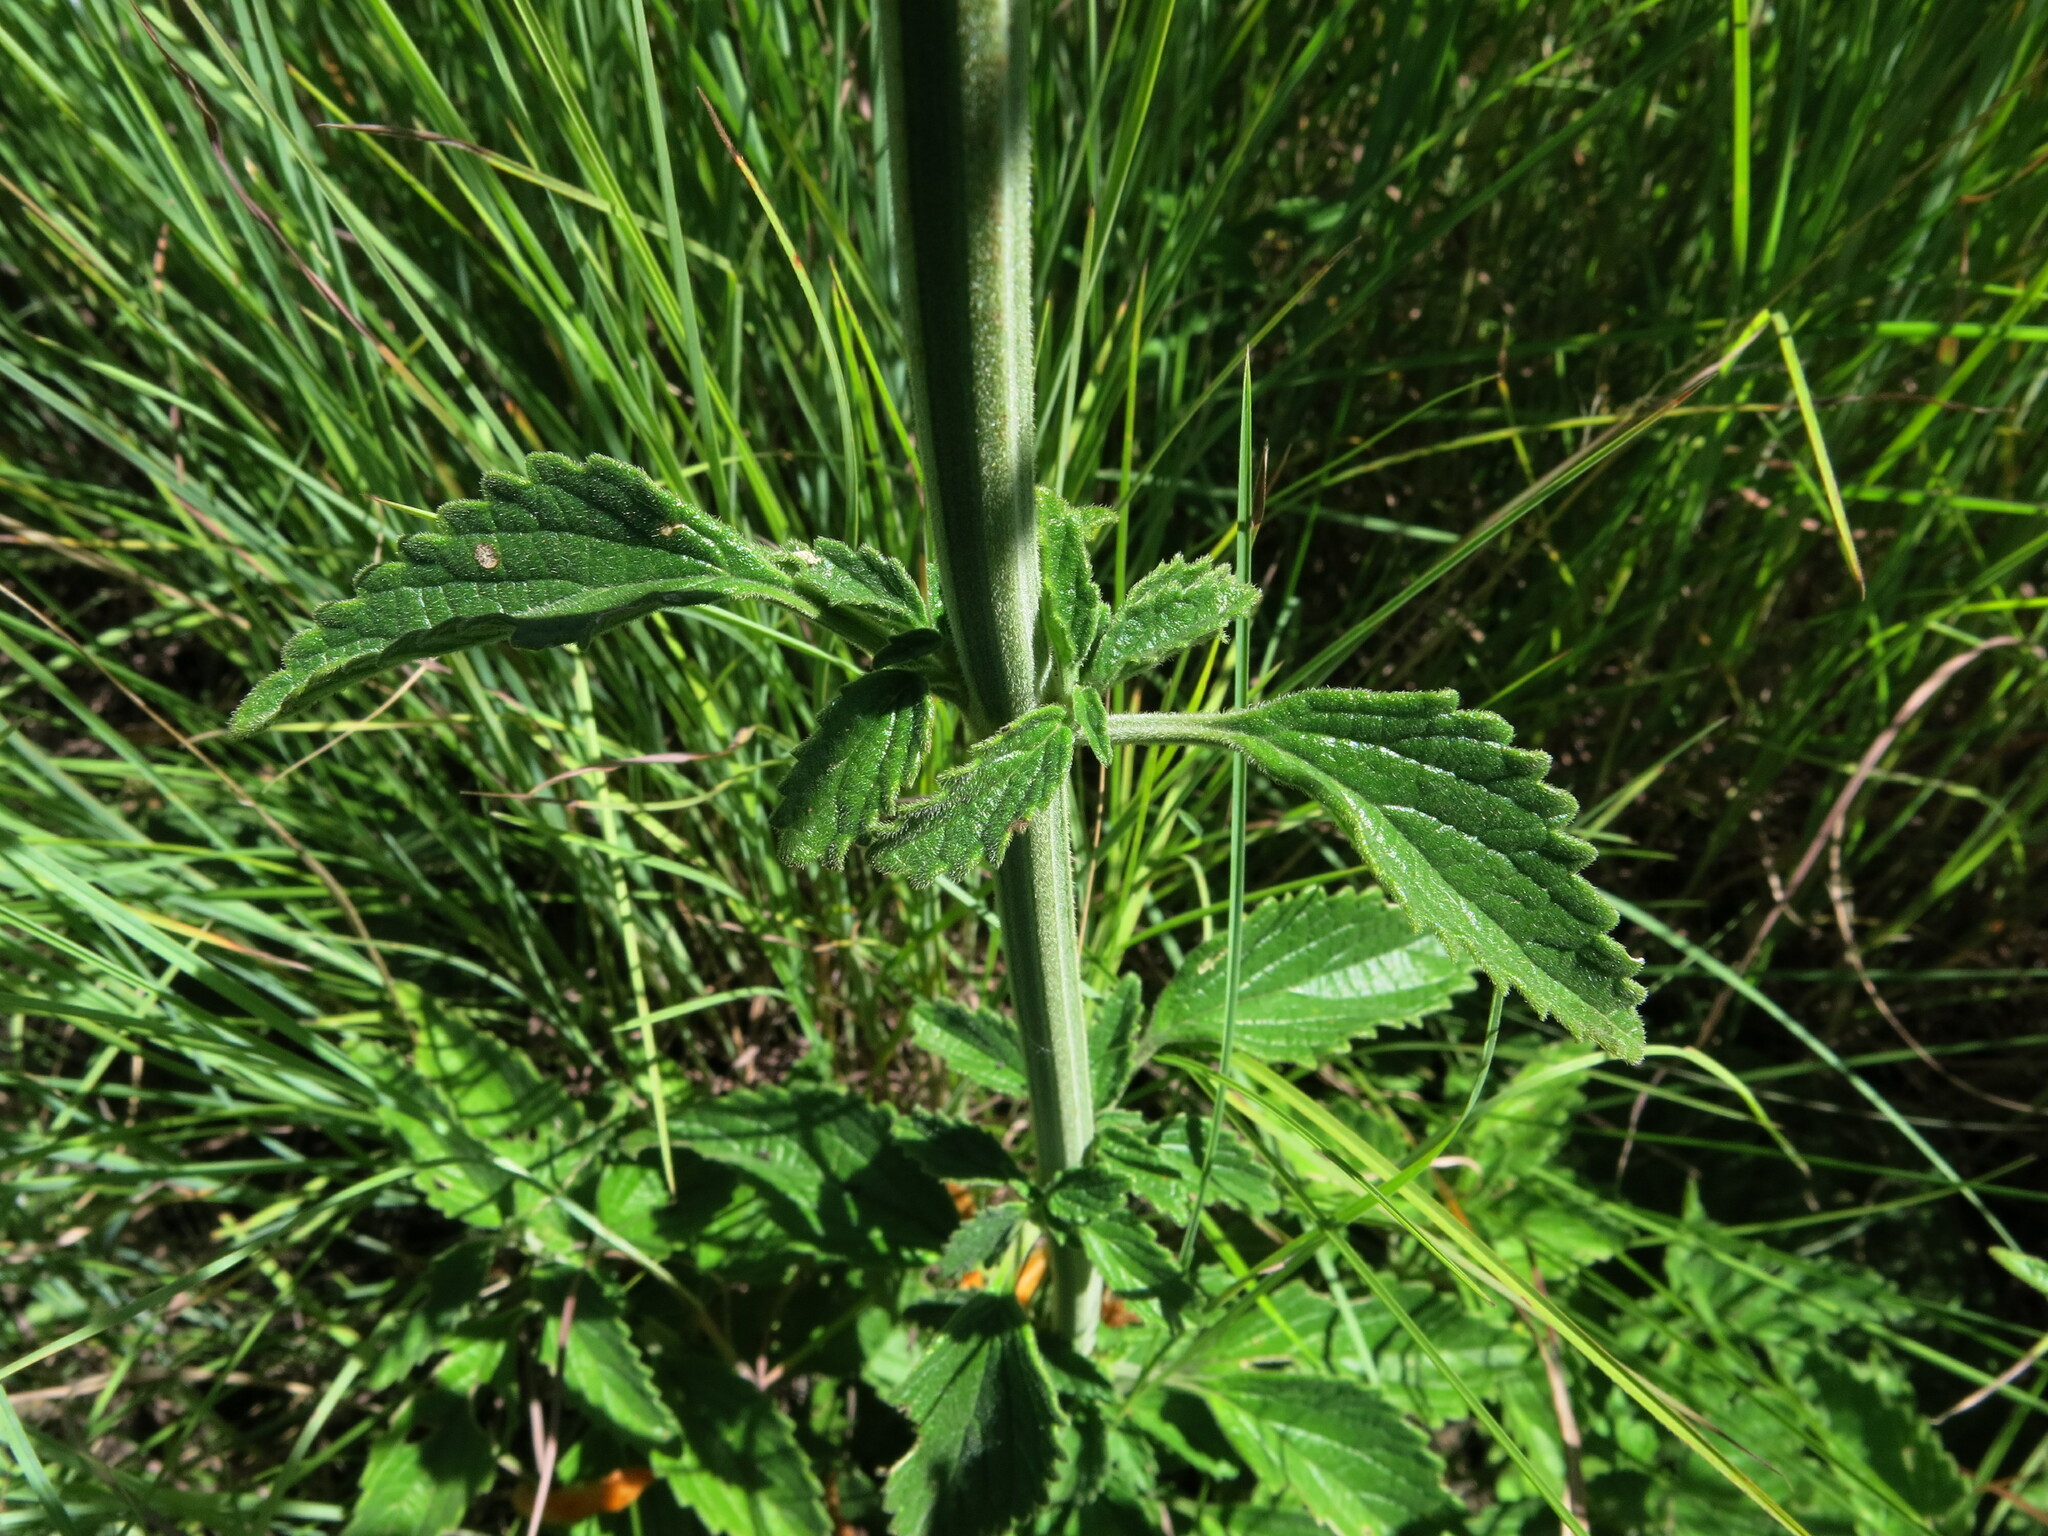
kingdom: Plantae
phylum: Tracheophyta
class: Magnoliopsida
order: Lamiales
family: Lamiaceae
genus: Leonotis
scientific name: Leonotis ocymifolia
